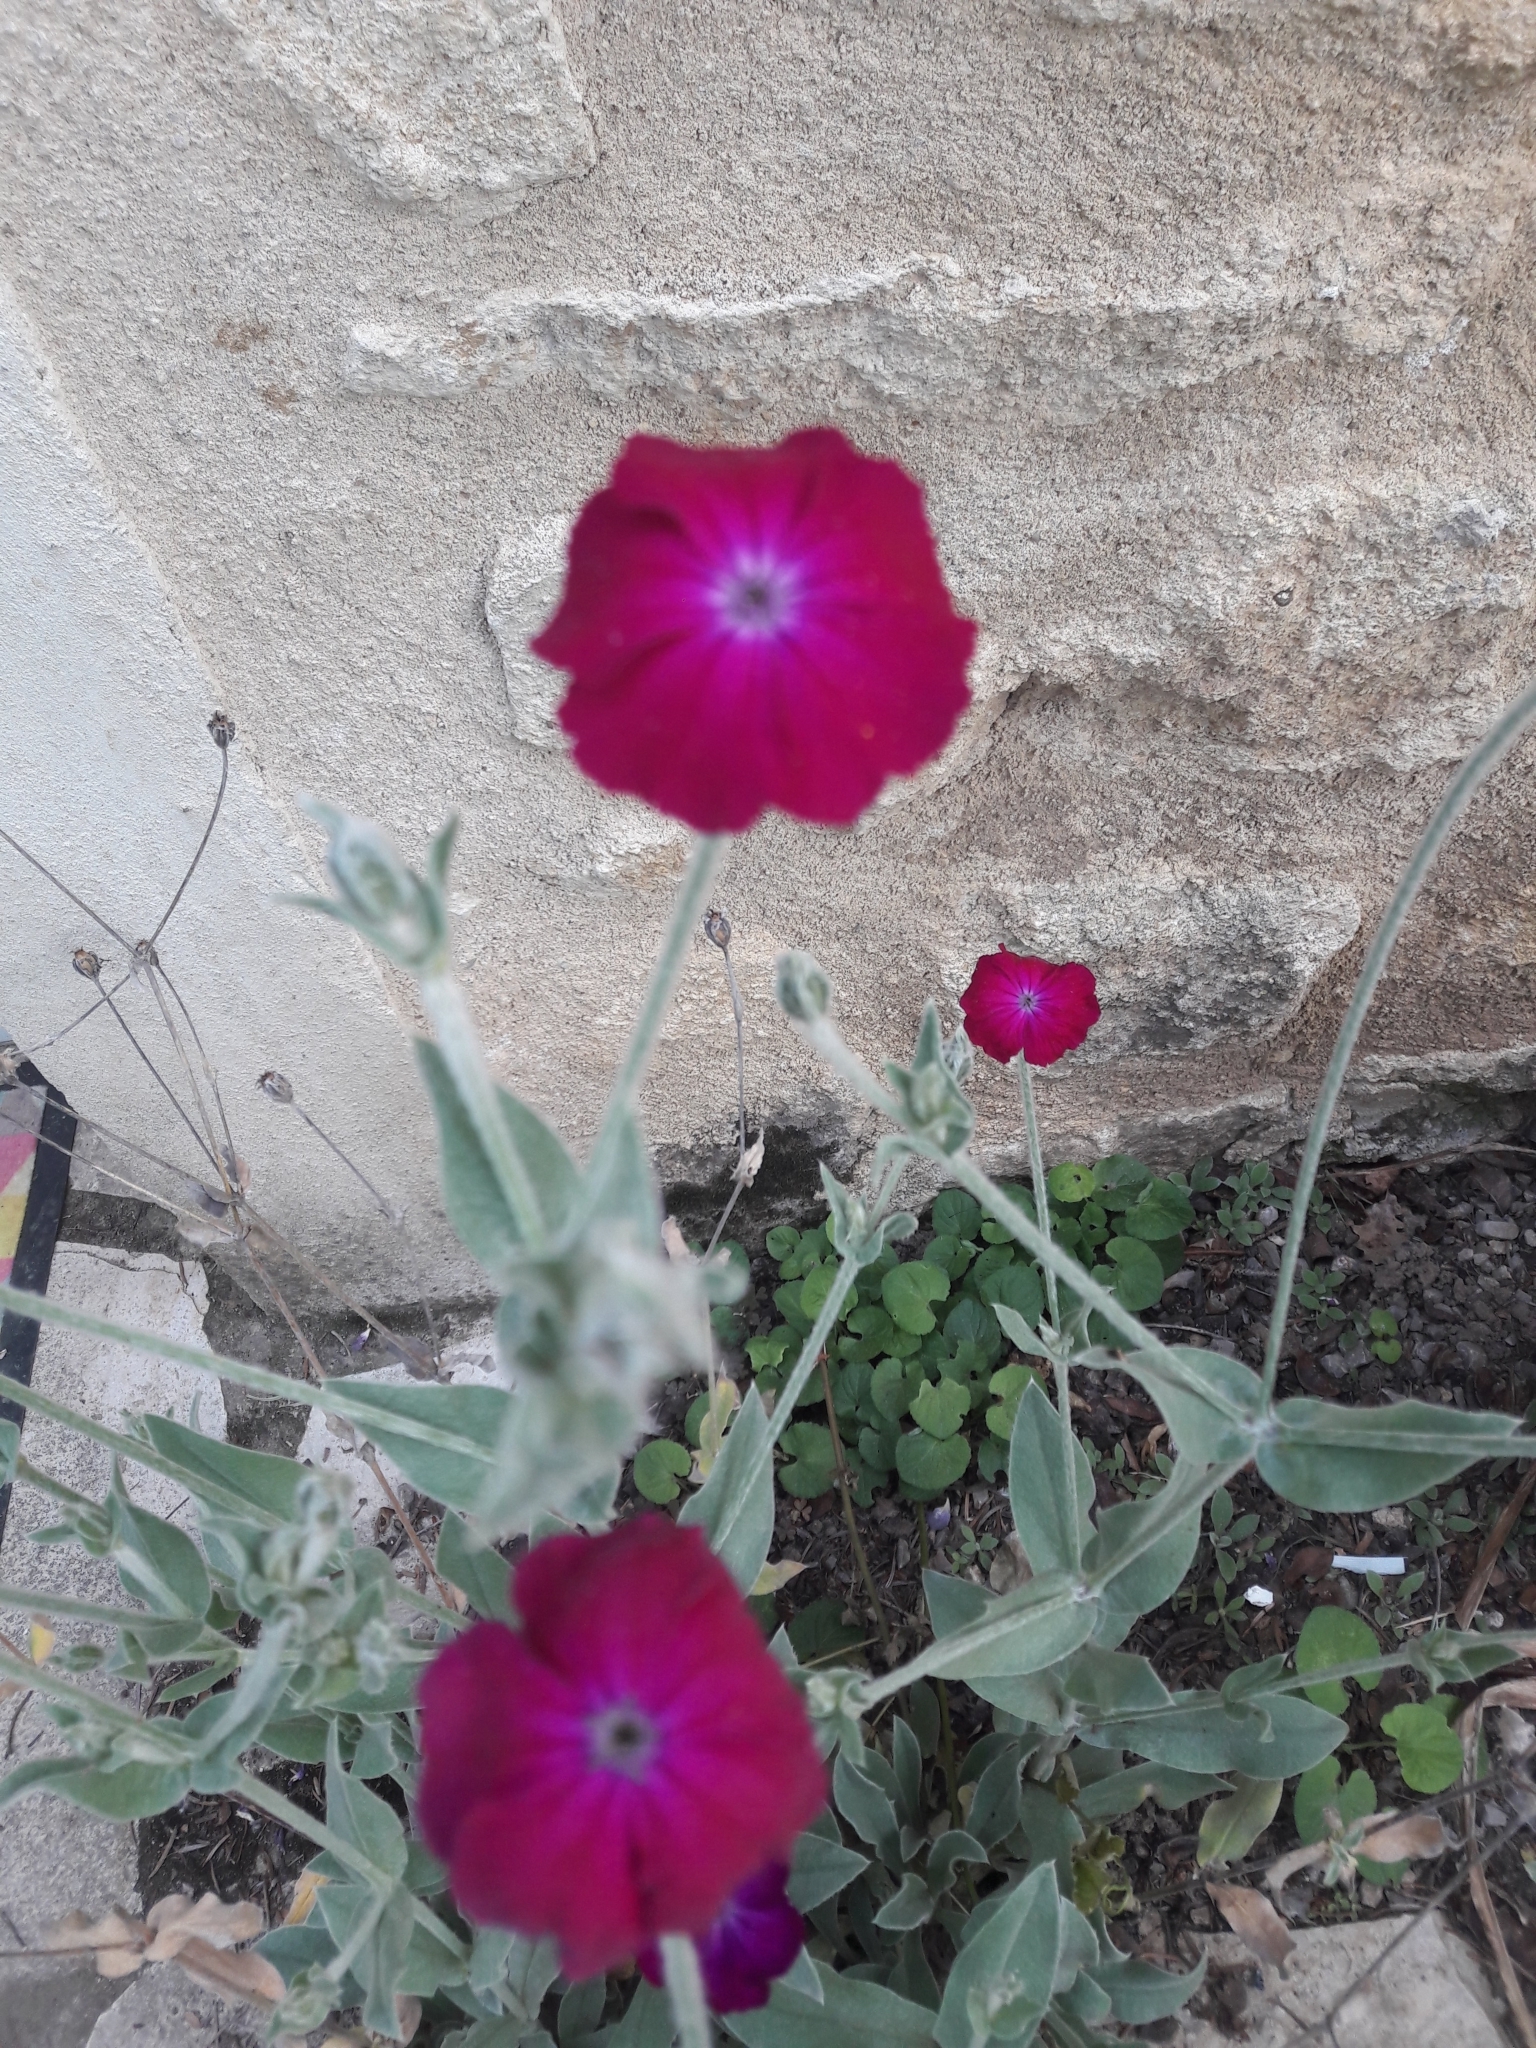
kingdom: Plantae
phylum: Tracheophyta
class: Magnoliopsida
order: Caryophyllales
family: Caryophyllaceae
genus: Silene
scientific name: Silene coronaria
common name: Rose campion
